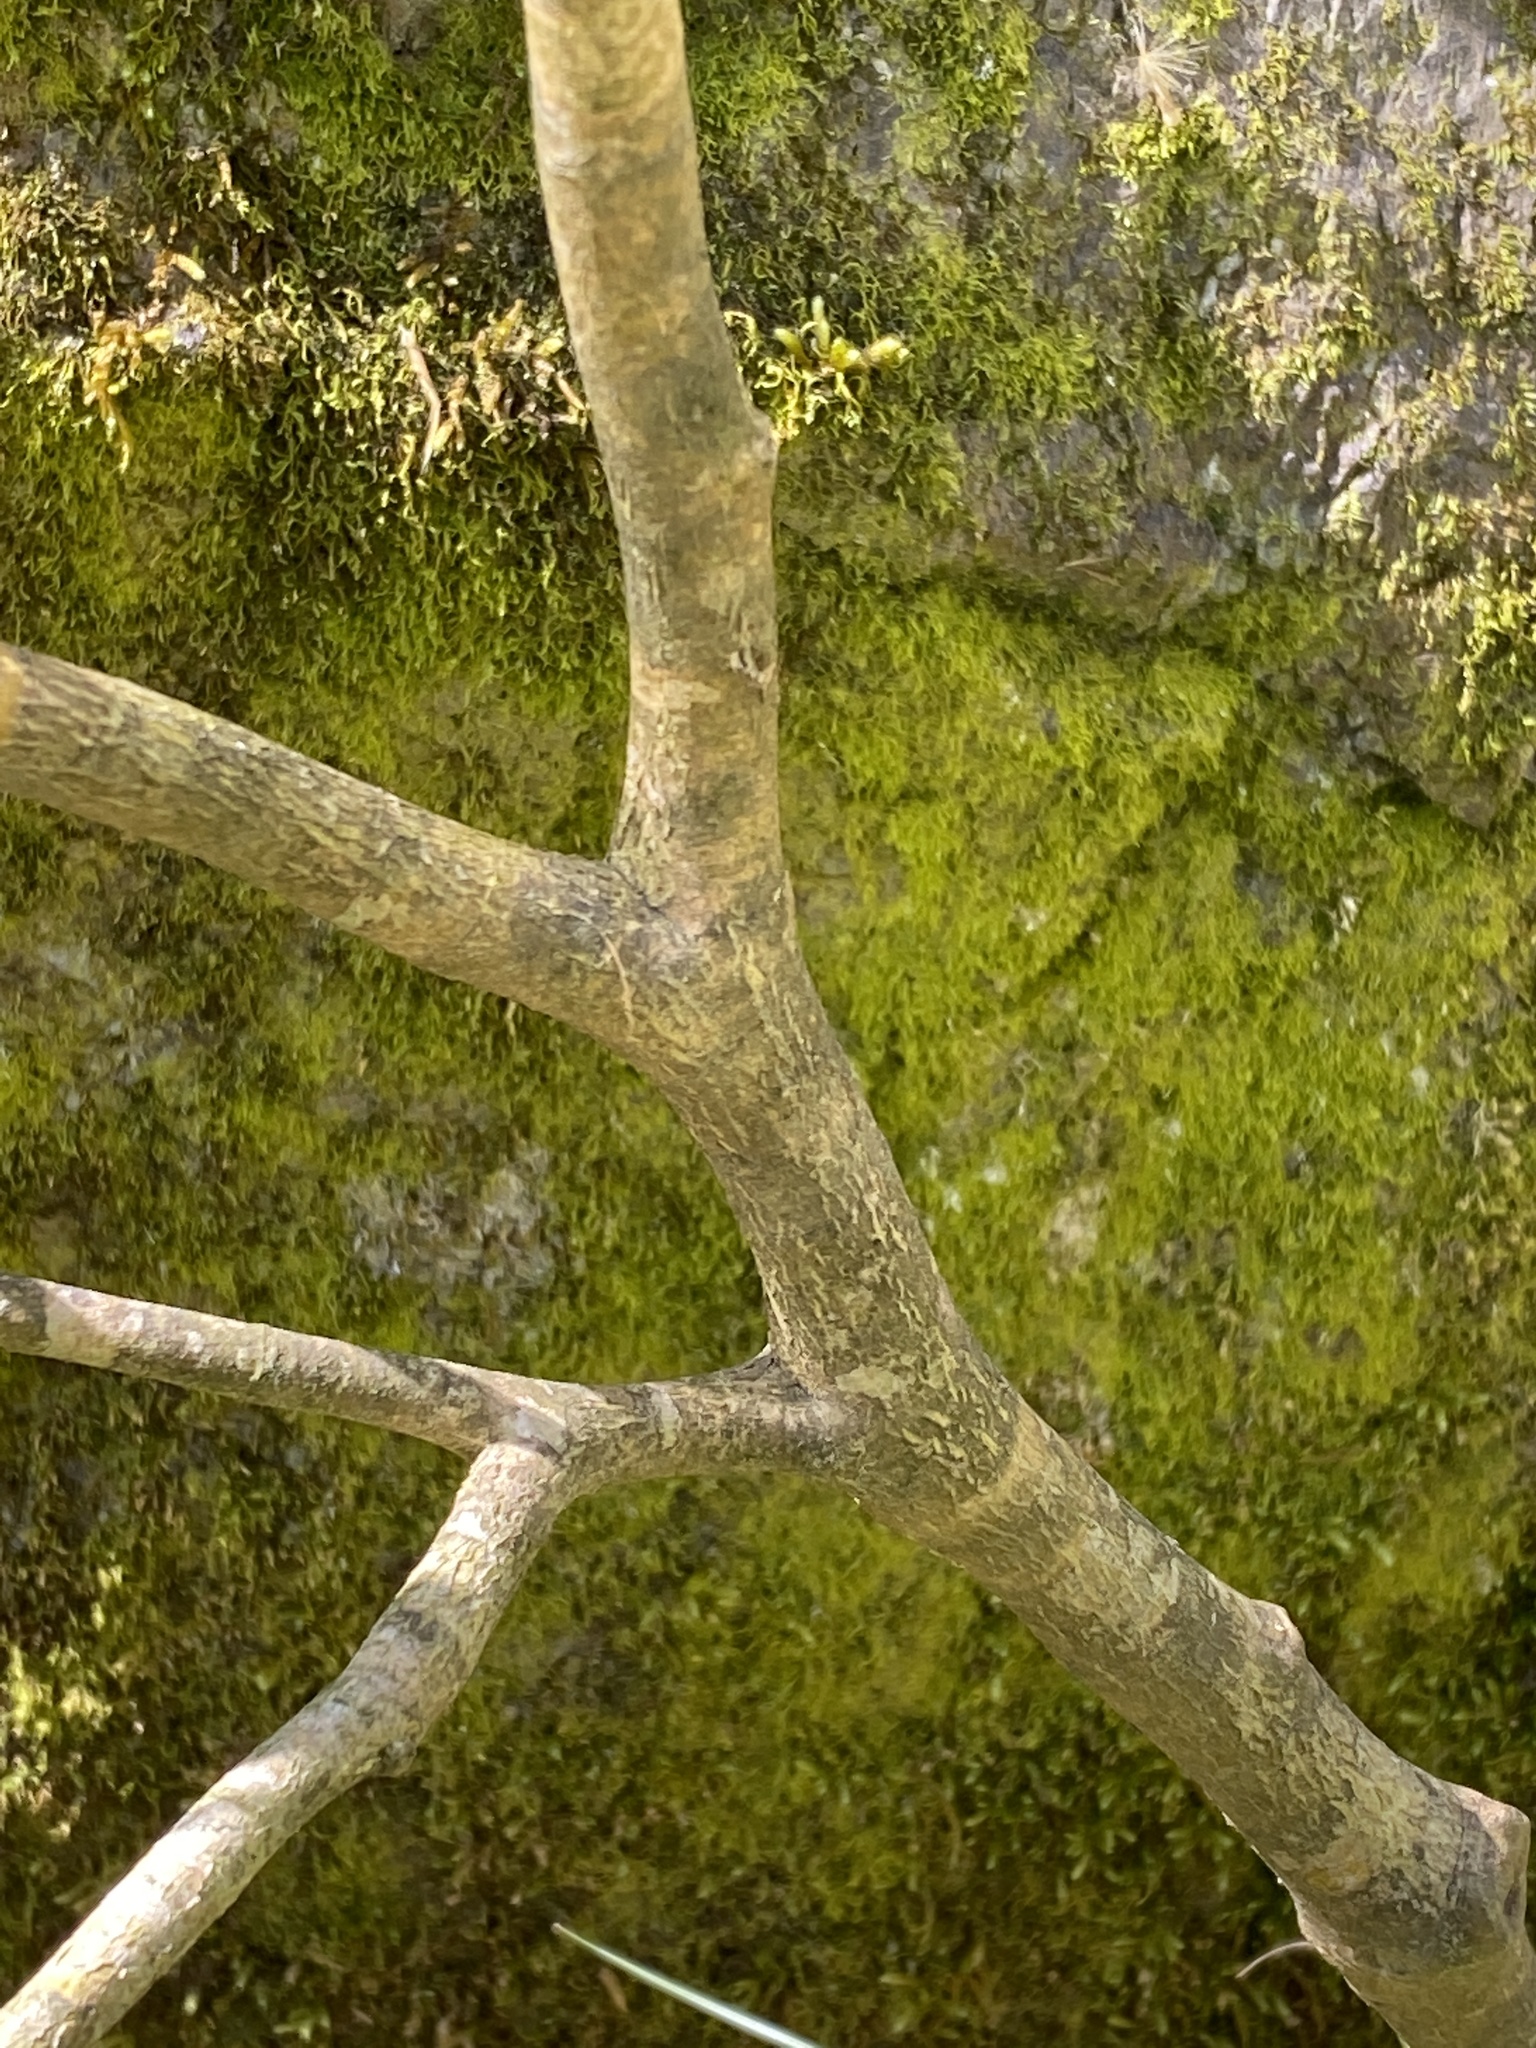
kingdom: Plantae
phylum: Tracheophyta
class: Magnoliopsida
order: Malvales
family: Thymelaeaceae
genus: Dirca
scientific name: Dirca palustris
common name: Leatherwood
